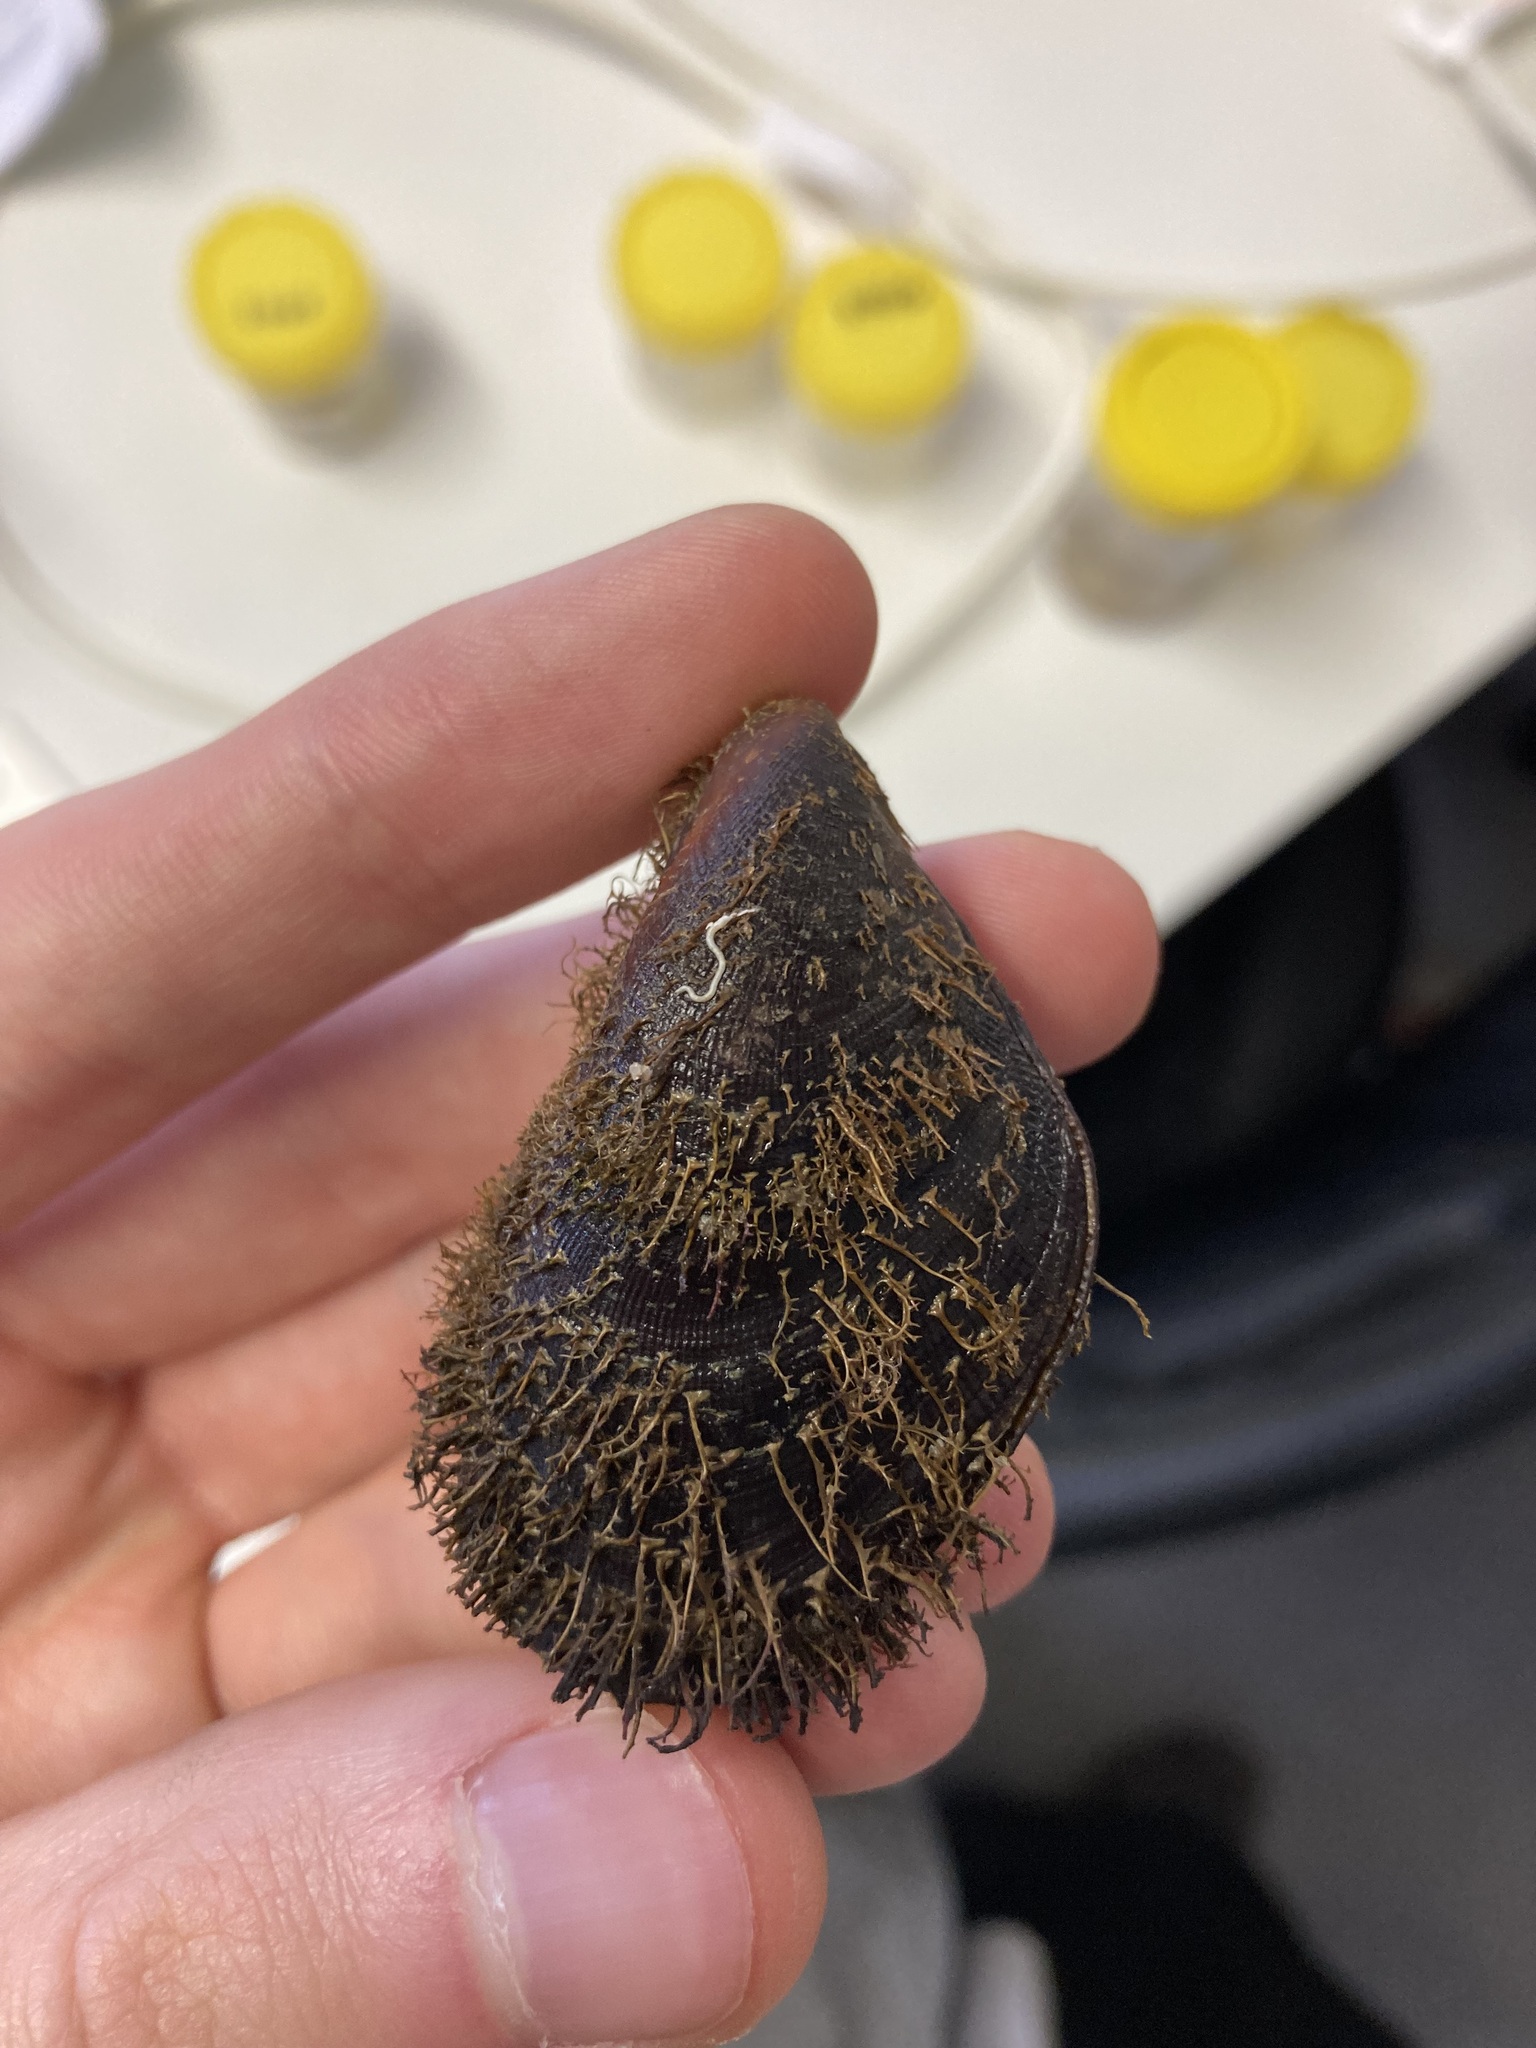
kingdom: Animalia
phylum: Mollusca
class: Bivalvia
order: Mytilida
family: Mytilidae
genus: Trichomya
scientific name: Trichomya hirsuta
